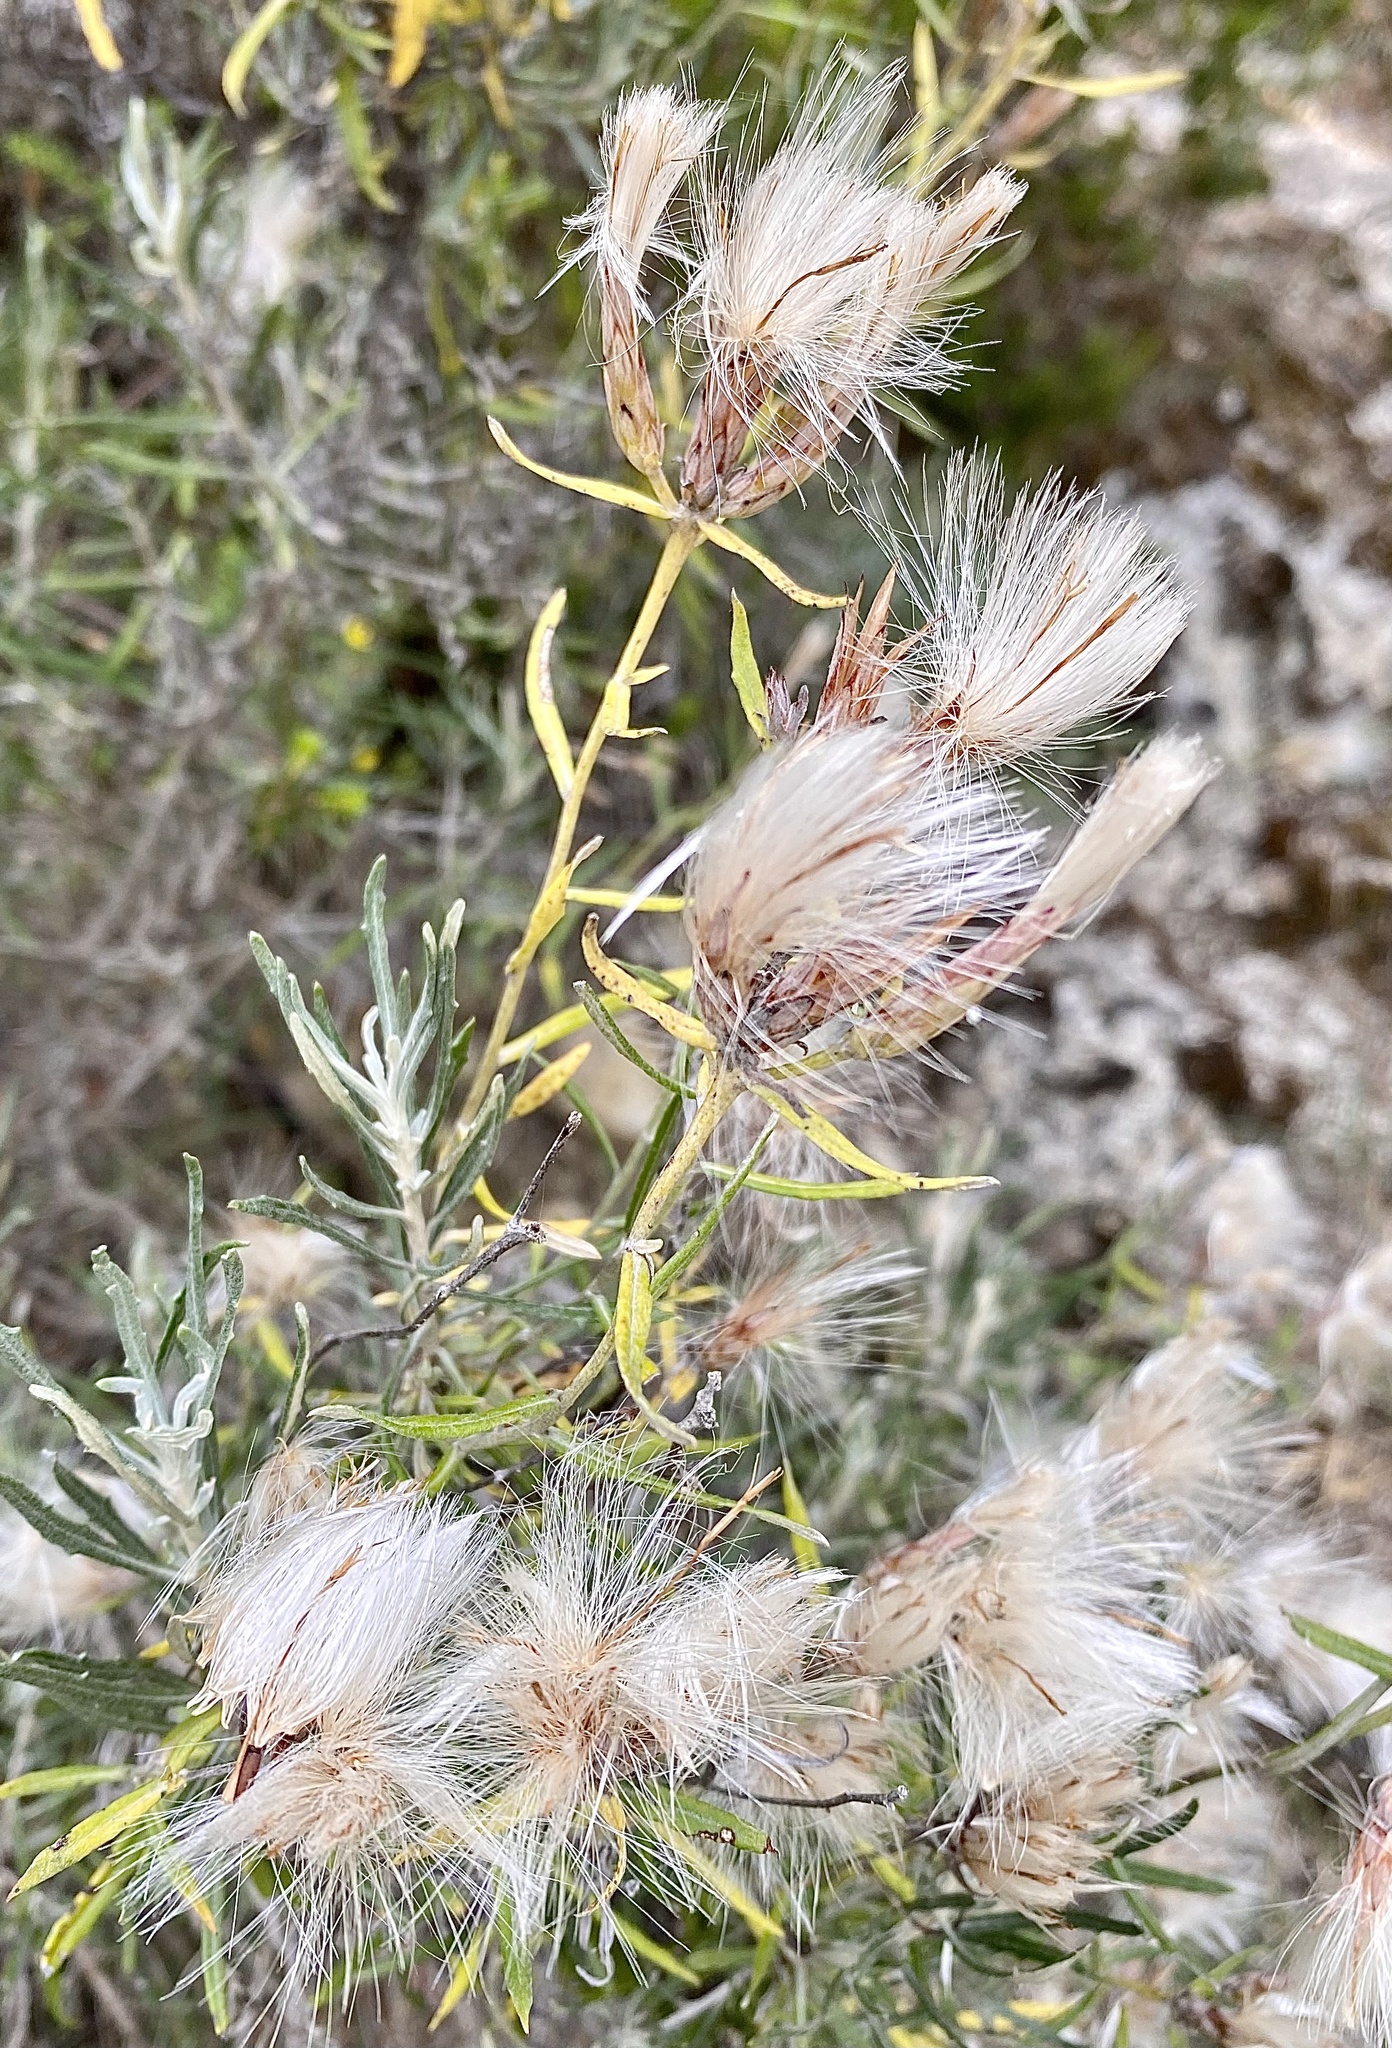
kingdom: Plantae
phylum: Tracheophyta
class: Magnoliopsida
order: Asterales
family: Asteraceae
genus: Staehelina
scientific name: Staehelina dubia
